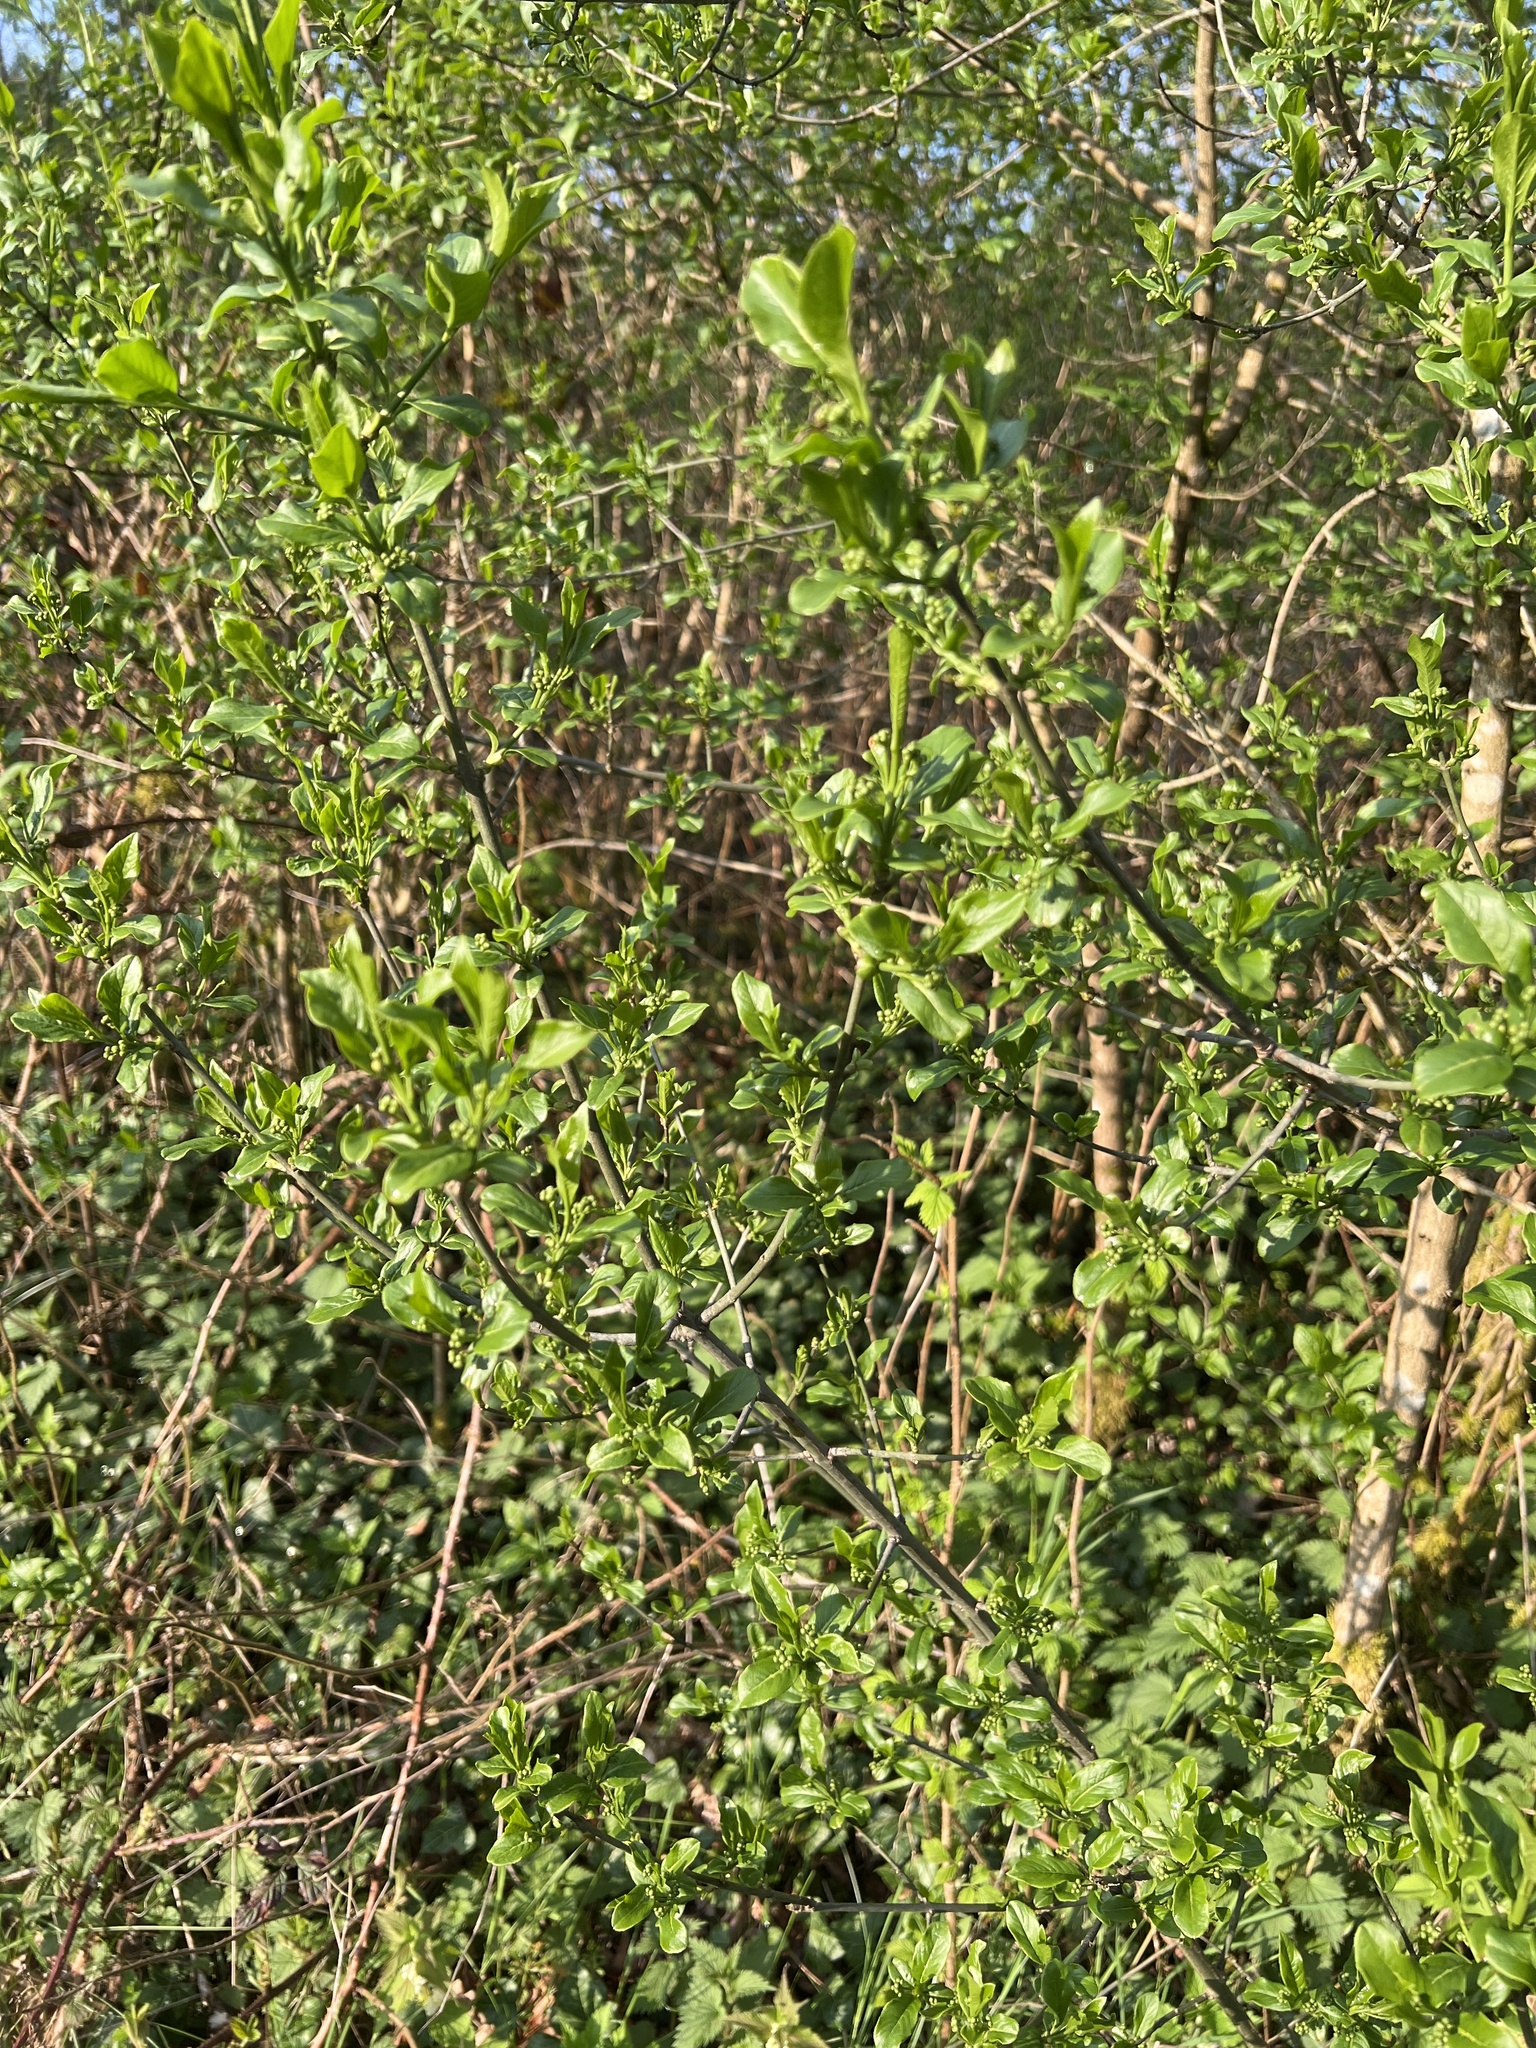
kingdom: Plantae
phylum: Tracheophyta
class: Magnoliopsida
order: Celastrales
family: Celastraceae
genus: Euonymus
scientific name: Euonymus europaeus
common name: Spindle
